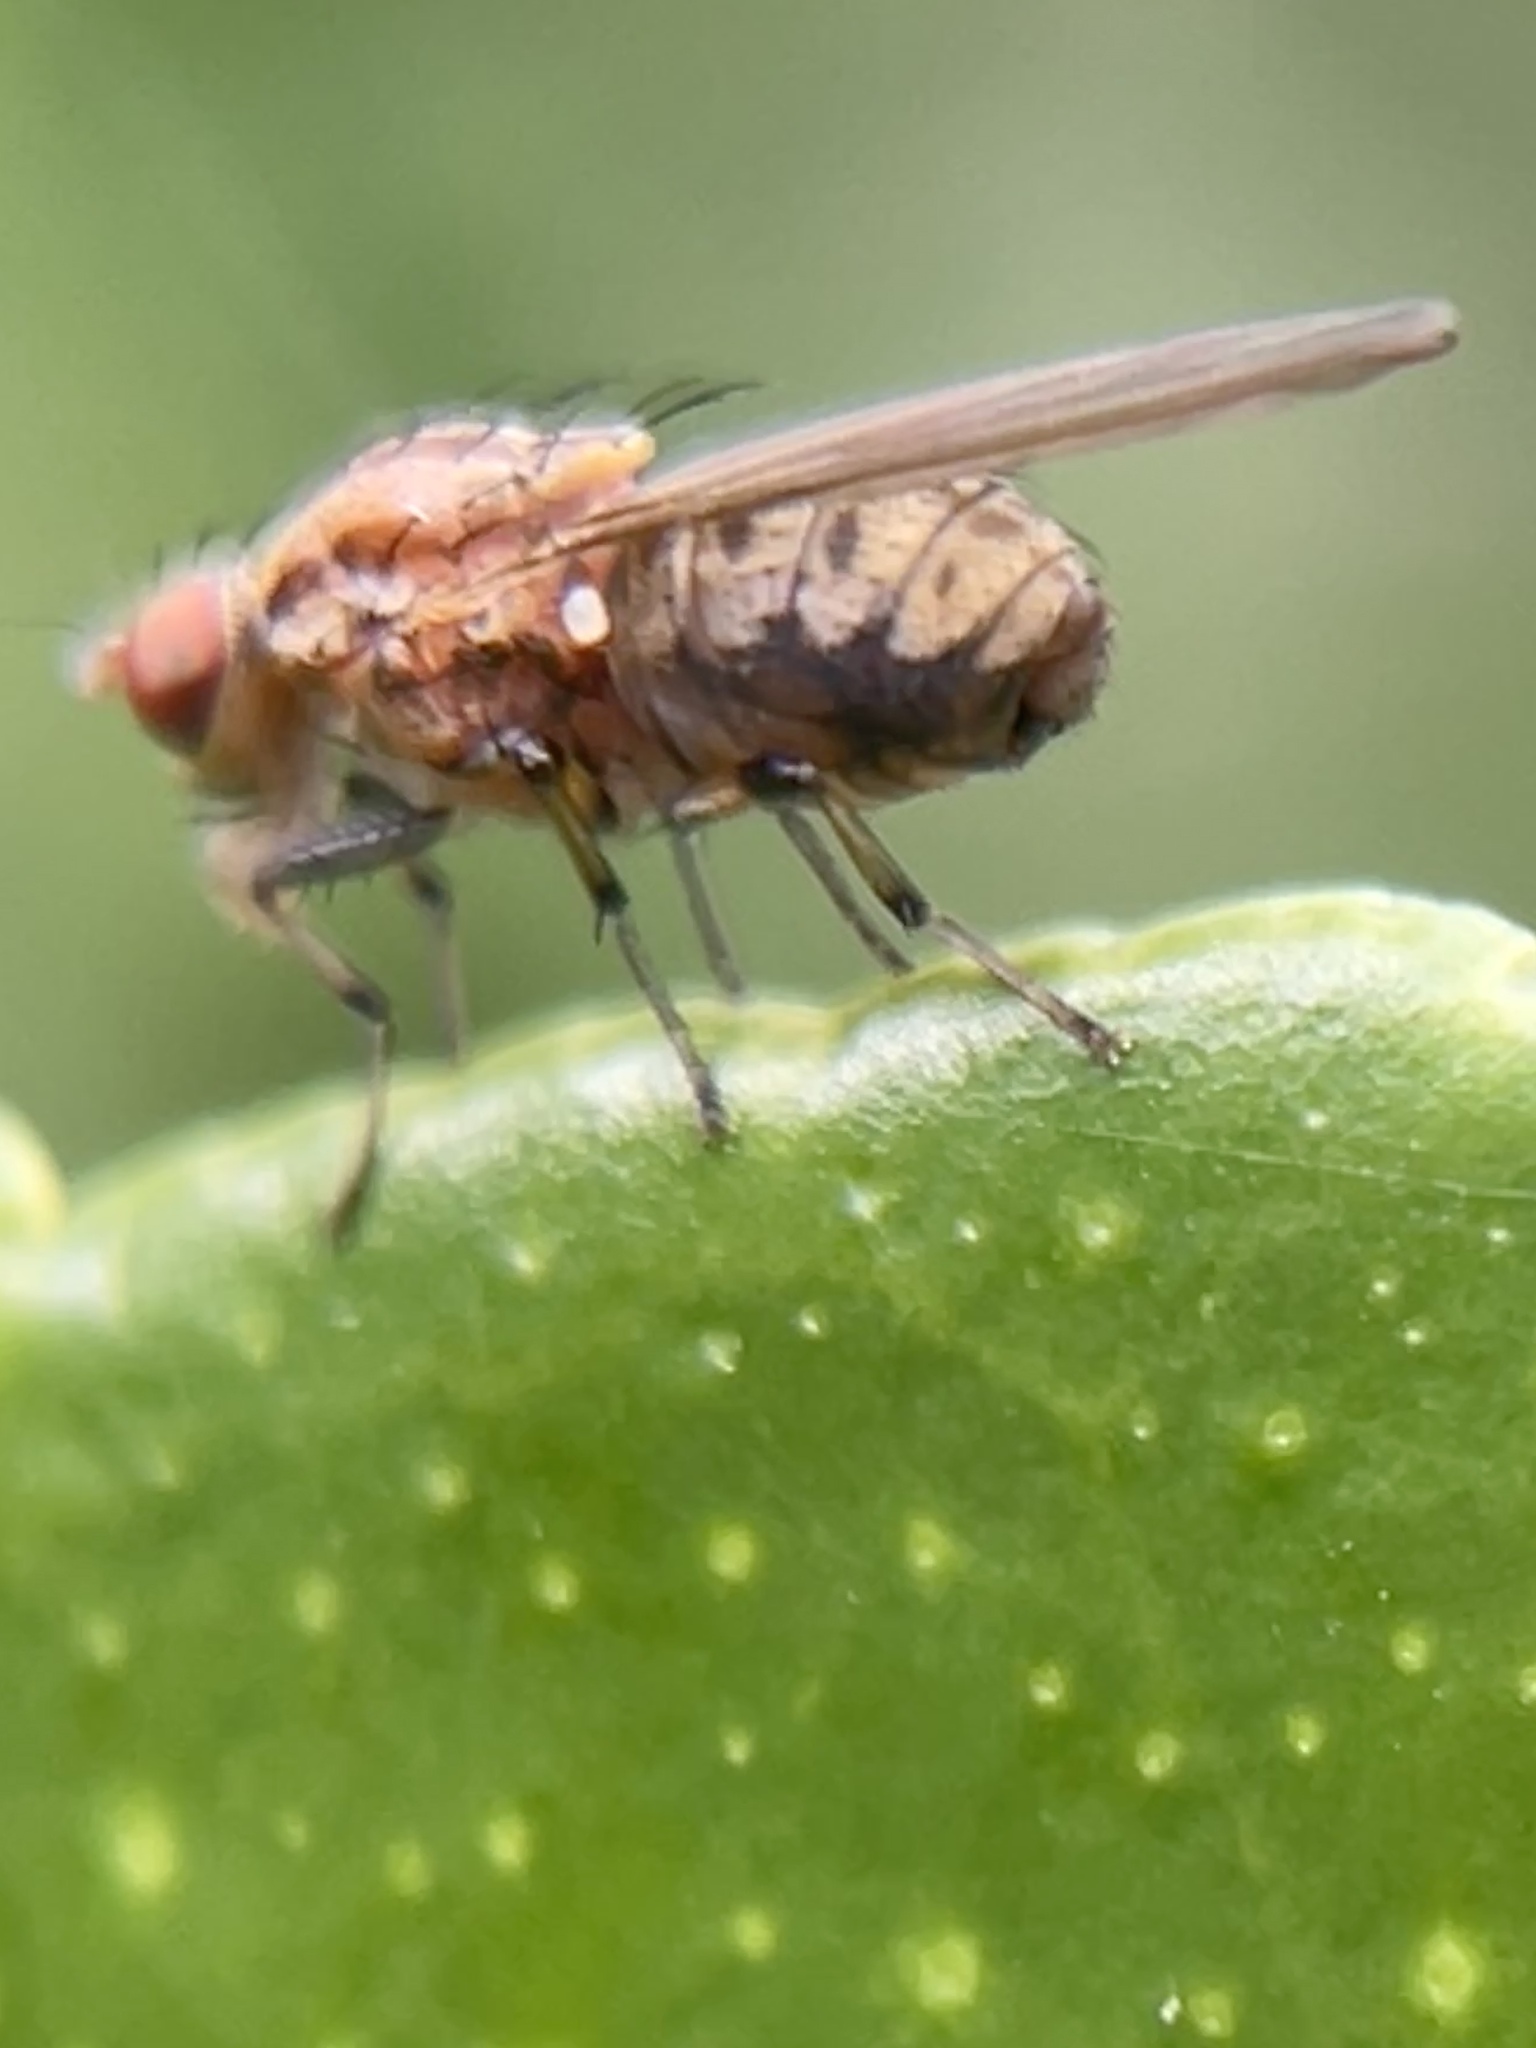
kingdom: Animalia
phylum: Arthropoda
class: Insecta
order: Diptera
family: Lauxaniidae
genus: Sapromyza
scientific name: Sapromyza brunneovittata
